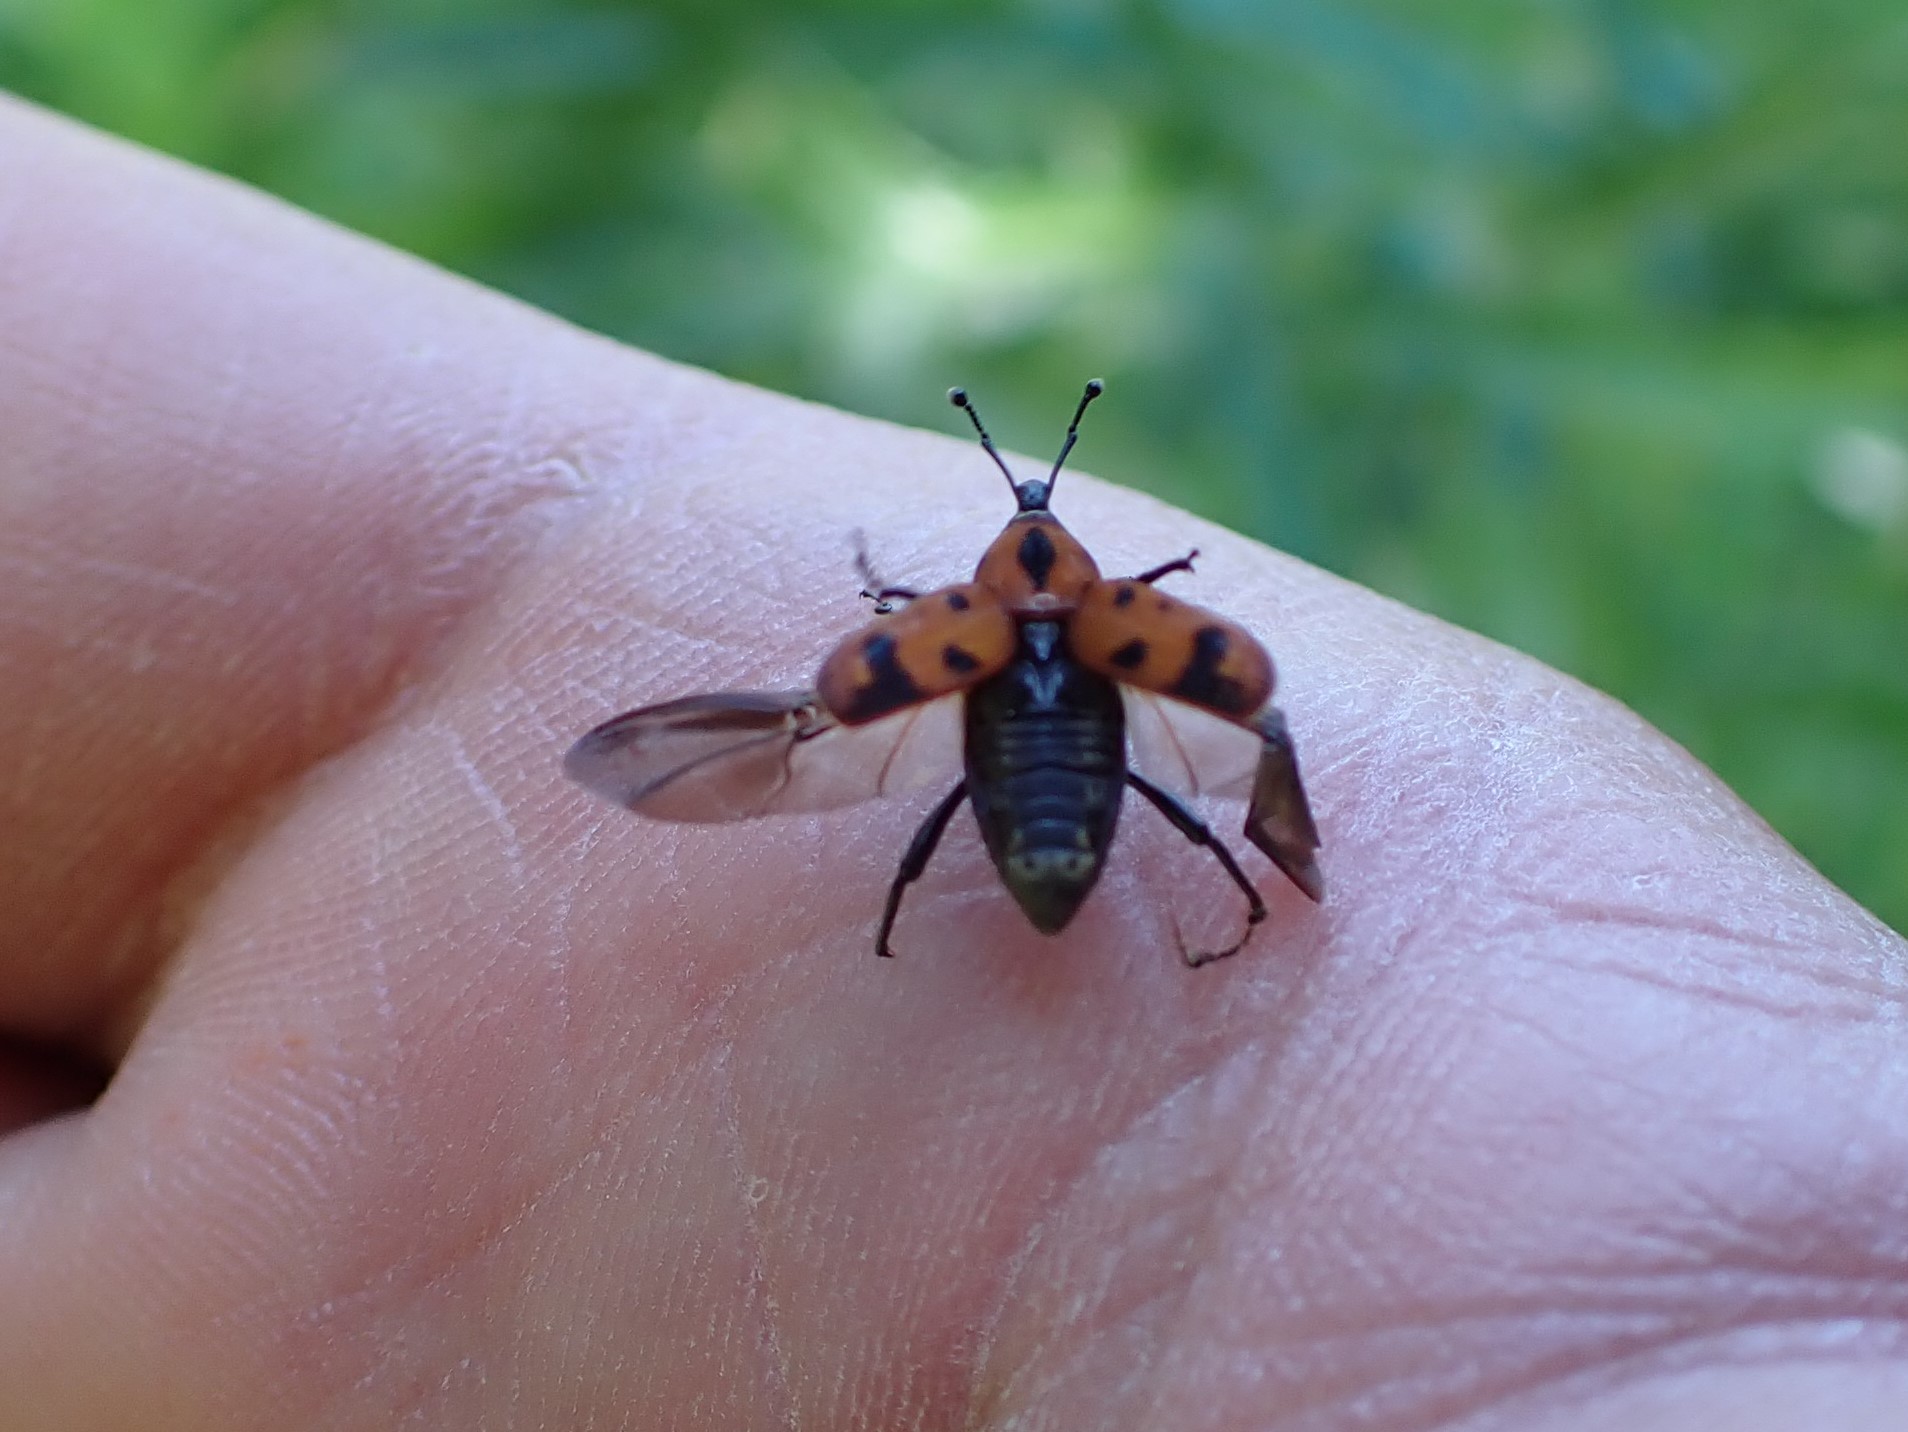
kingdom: Animalia
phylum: Arthropoda
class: Insecta
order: Coleoptera
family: Dryophthoridae
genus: Rhodobaenus
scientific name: Rhodobaenus quinquepunctatus
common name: Cocklebur weevil
